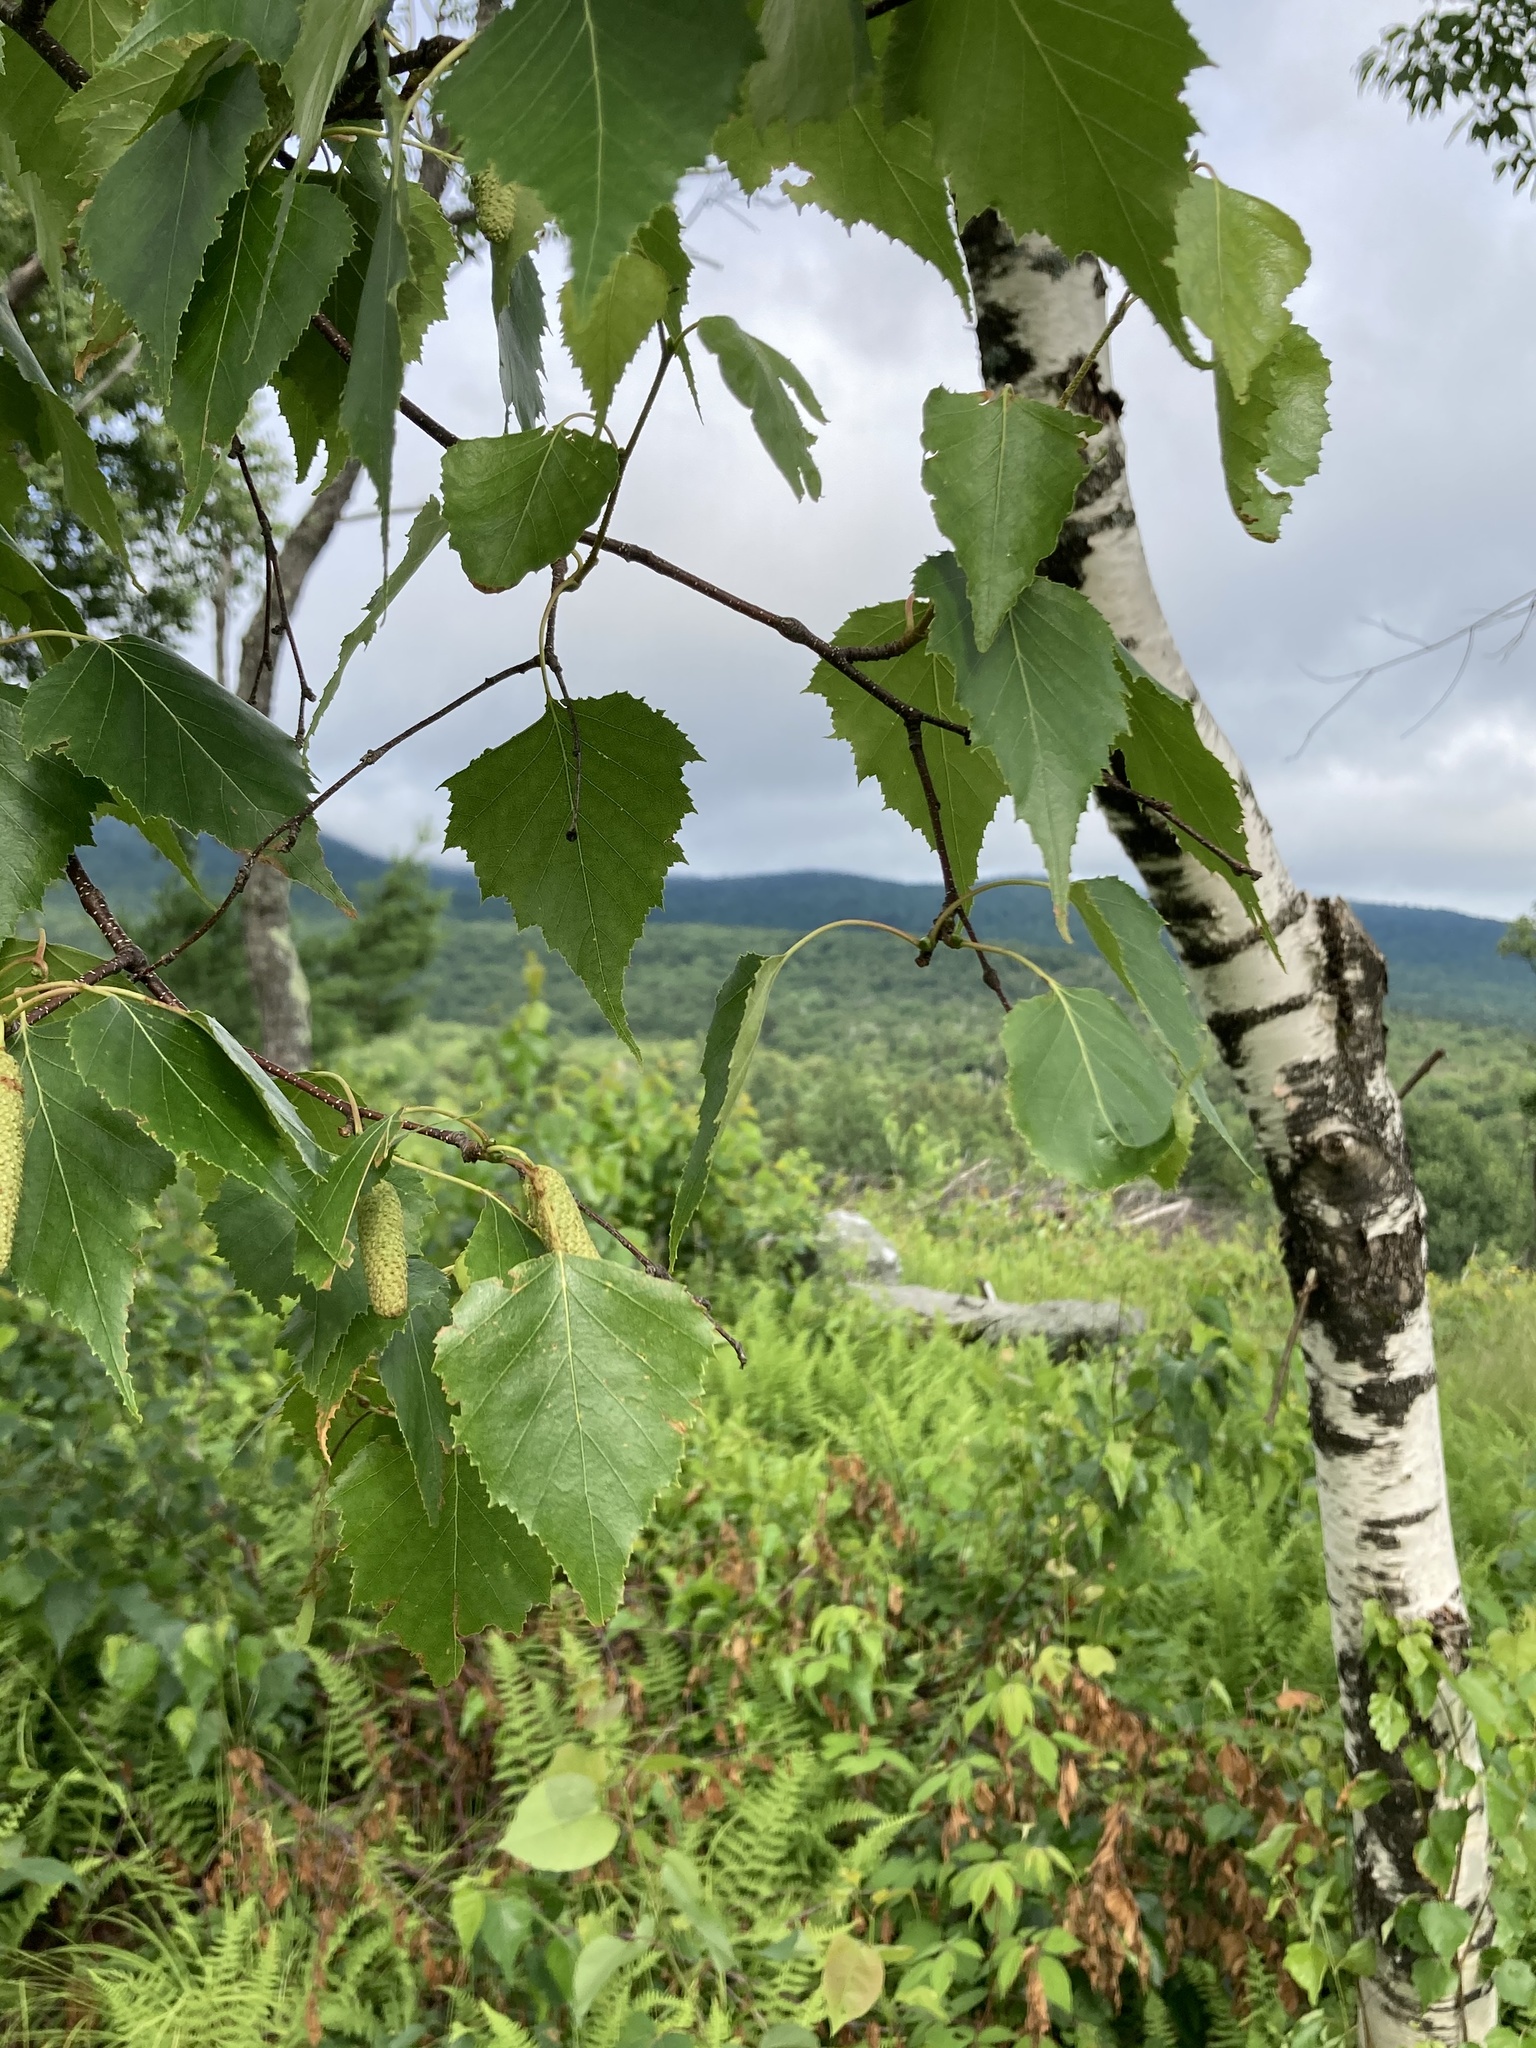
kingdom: Plantae
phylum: Tracheophyta
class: Magnoliopsida
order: Fagales
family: Betulaceae
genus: Betula
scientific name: Betula populifolia
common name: Fire birch
